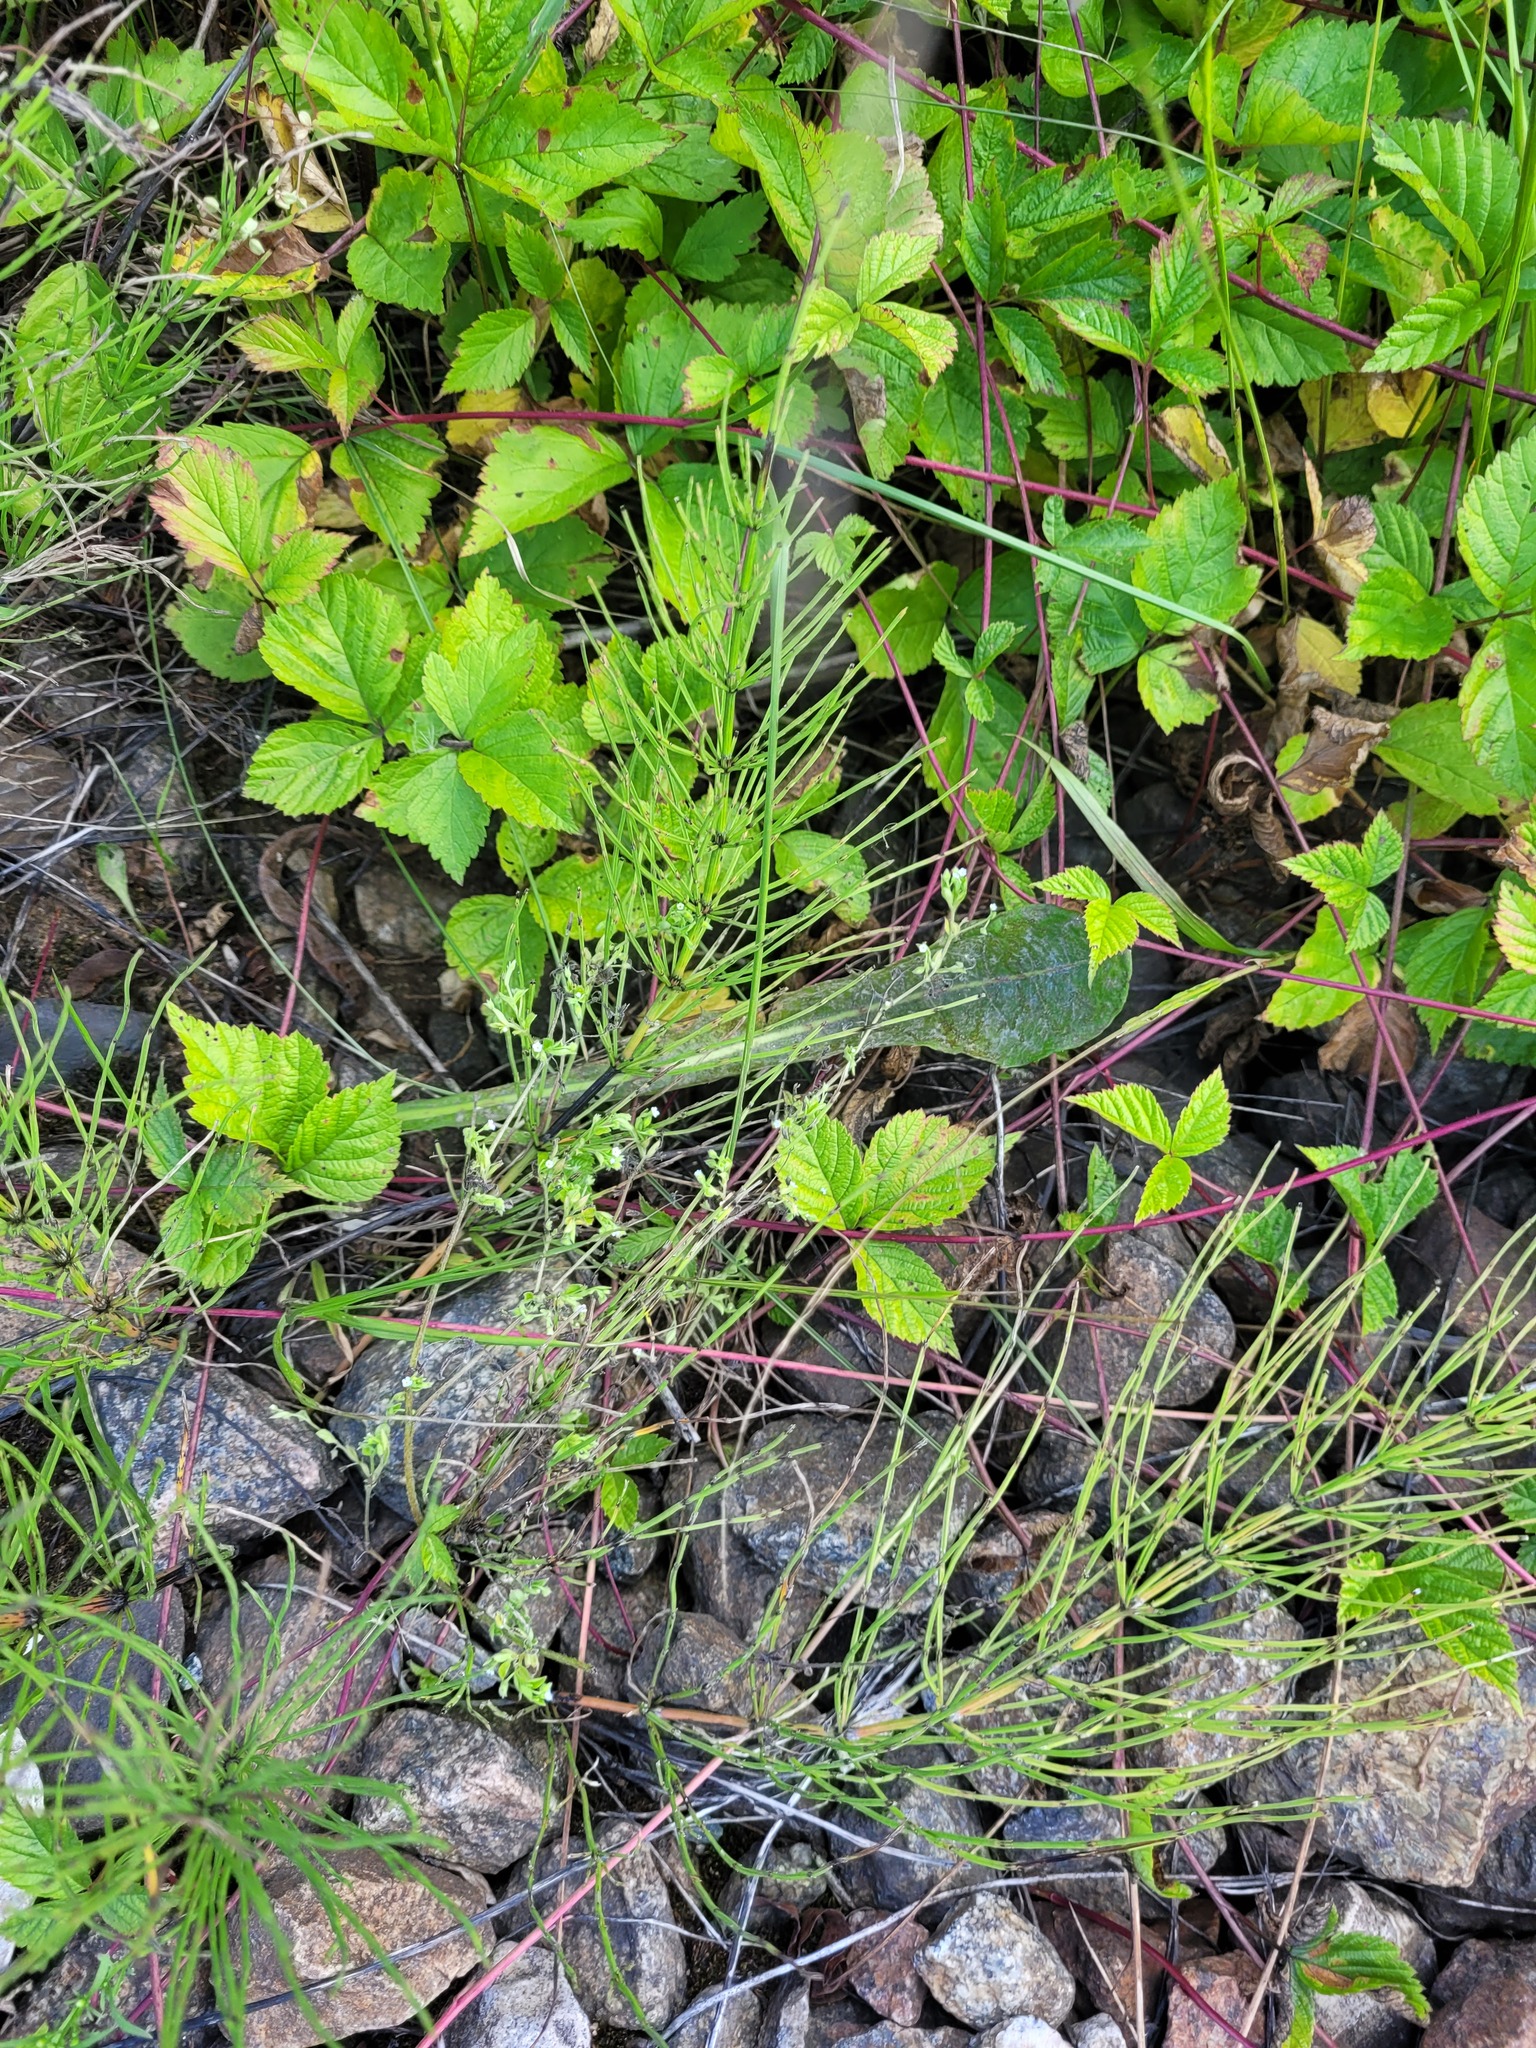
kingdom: Plantae
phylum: Tracheophyta
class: Magnoliopsida
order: Boraginales
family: Boraginaceae
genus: Myosotis
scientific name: Myosotis sparsiflora
